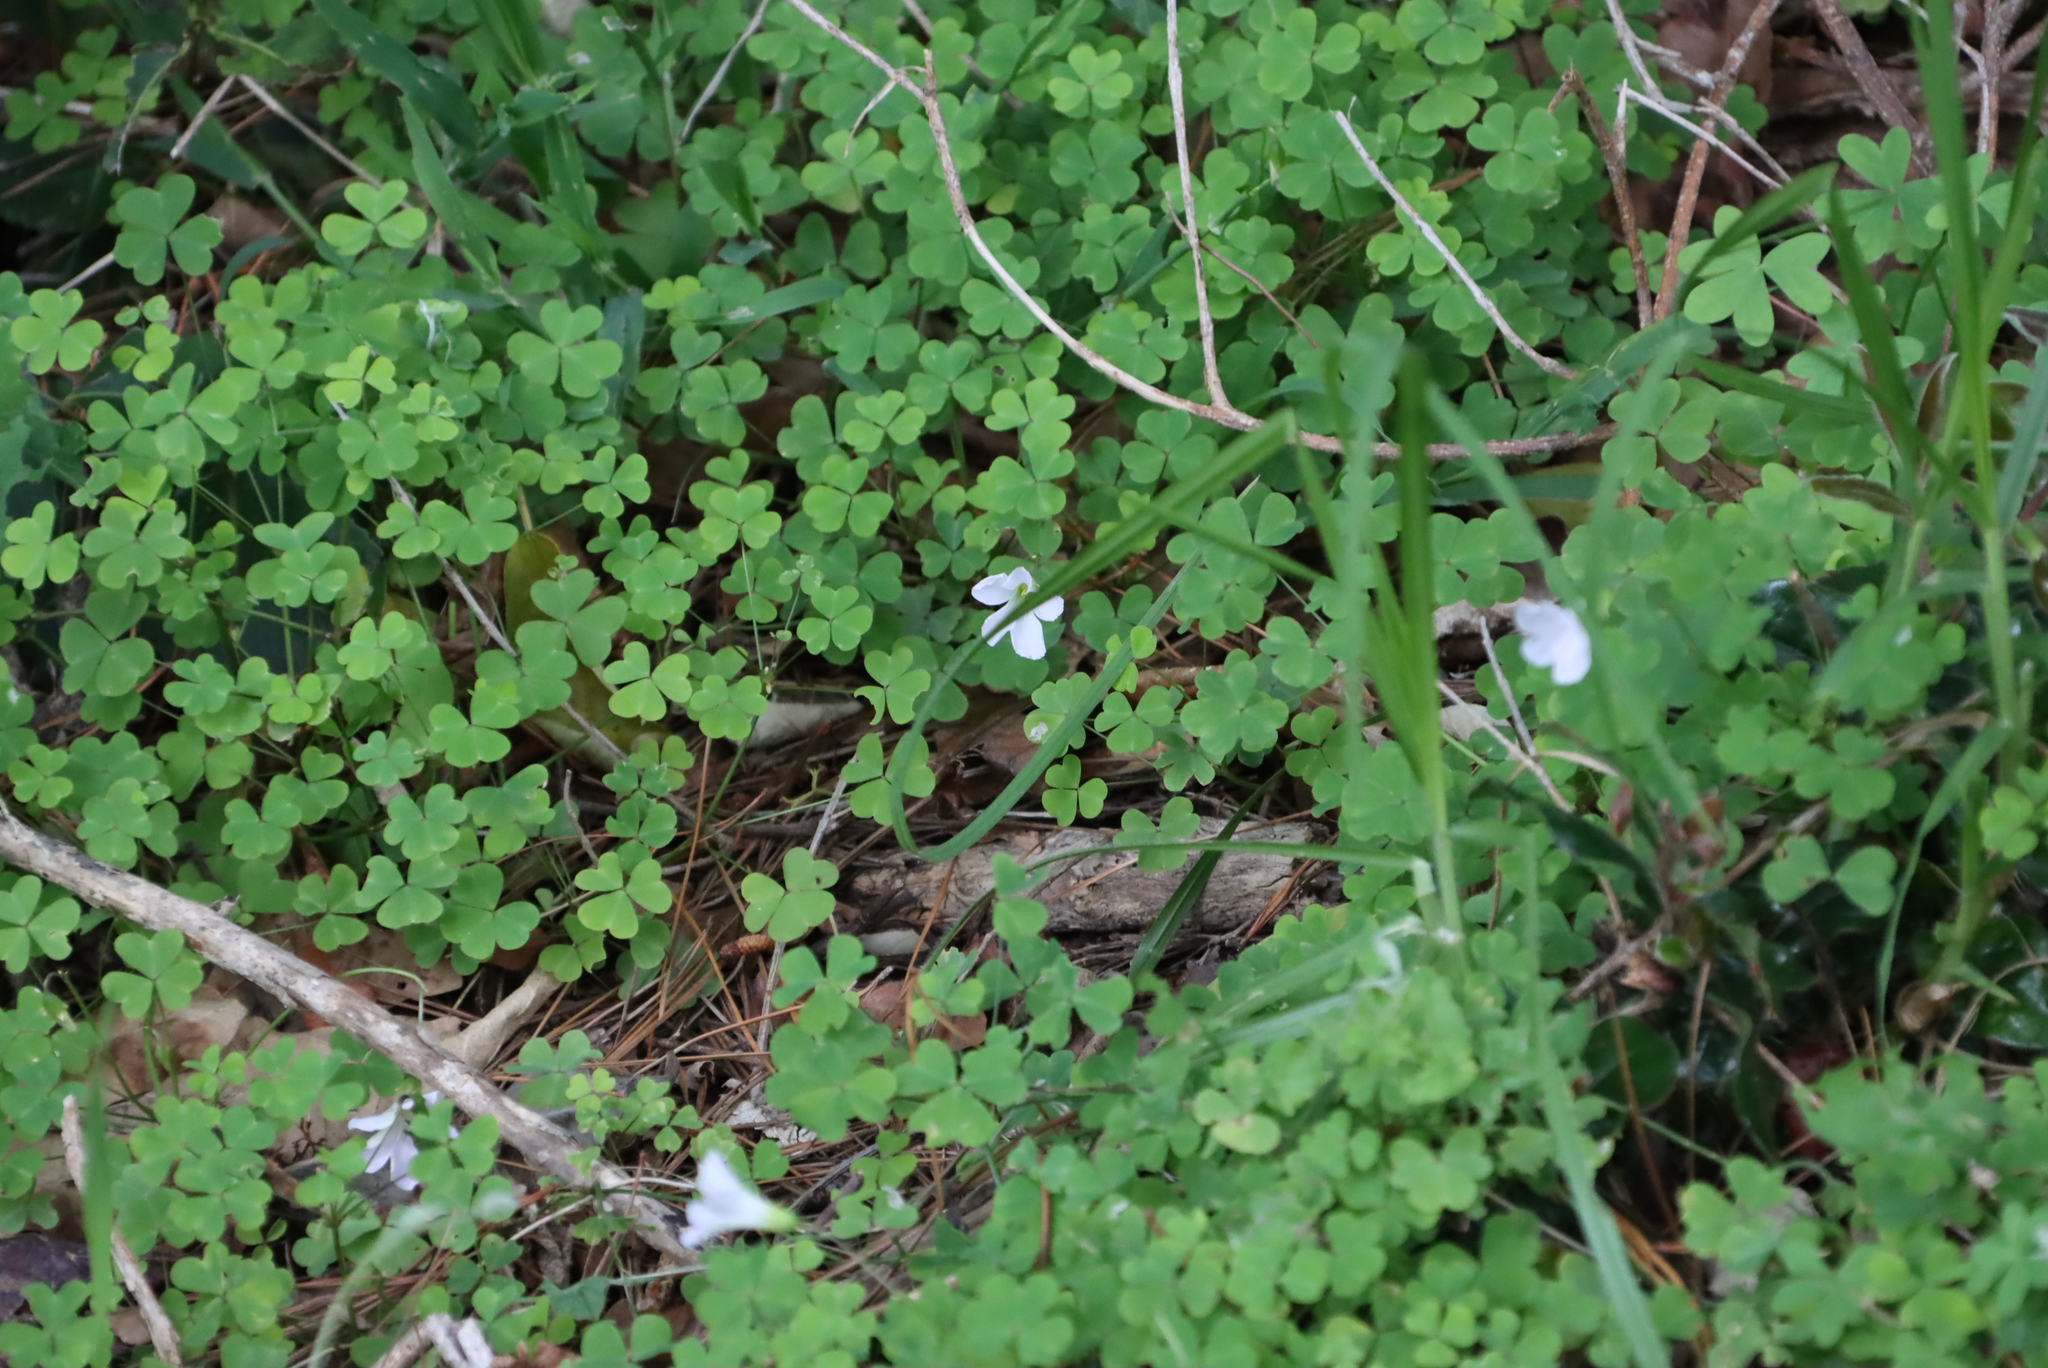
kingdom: Plantae
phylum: Tracheophyta
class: Magnoliopsida
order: Oxalidales
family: Oxalidaceae
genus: Oxalis
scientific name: Oxalis incarnata
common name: Pale pink-sorrel
